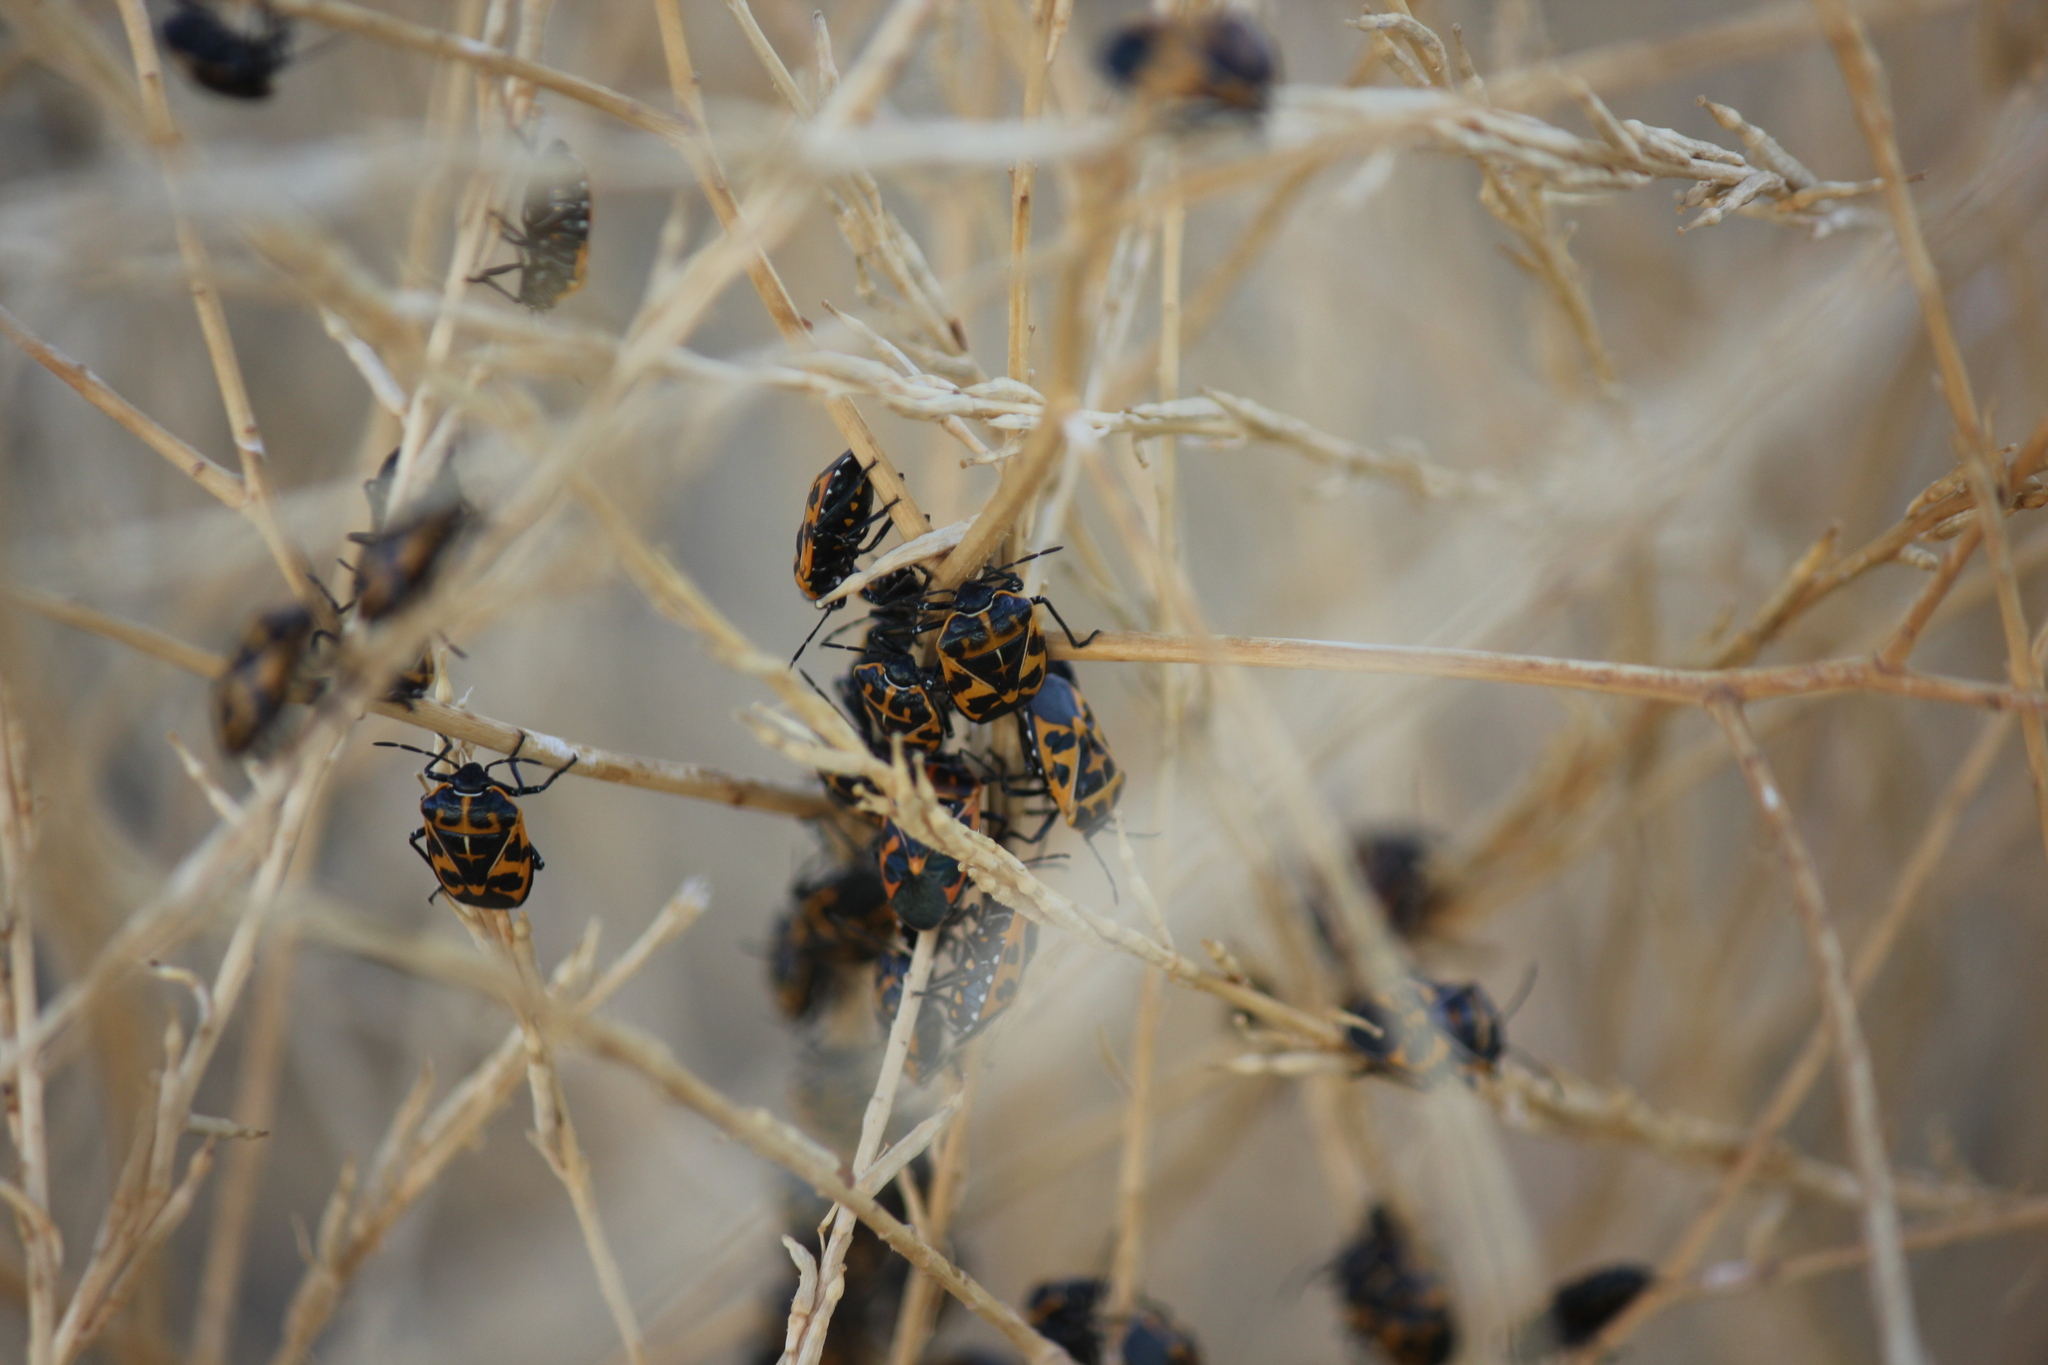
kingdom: Animalia
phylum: Arthropoda
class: Insecta
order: Hemiptera
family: Pentatomidae
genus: Murgantia
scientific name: Murgantia histrionica
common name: Harlequin bug
